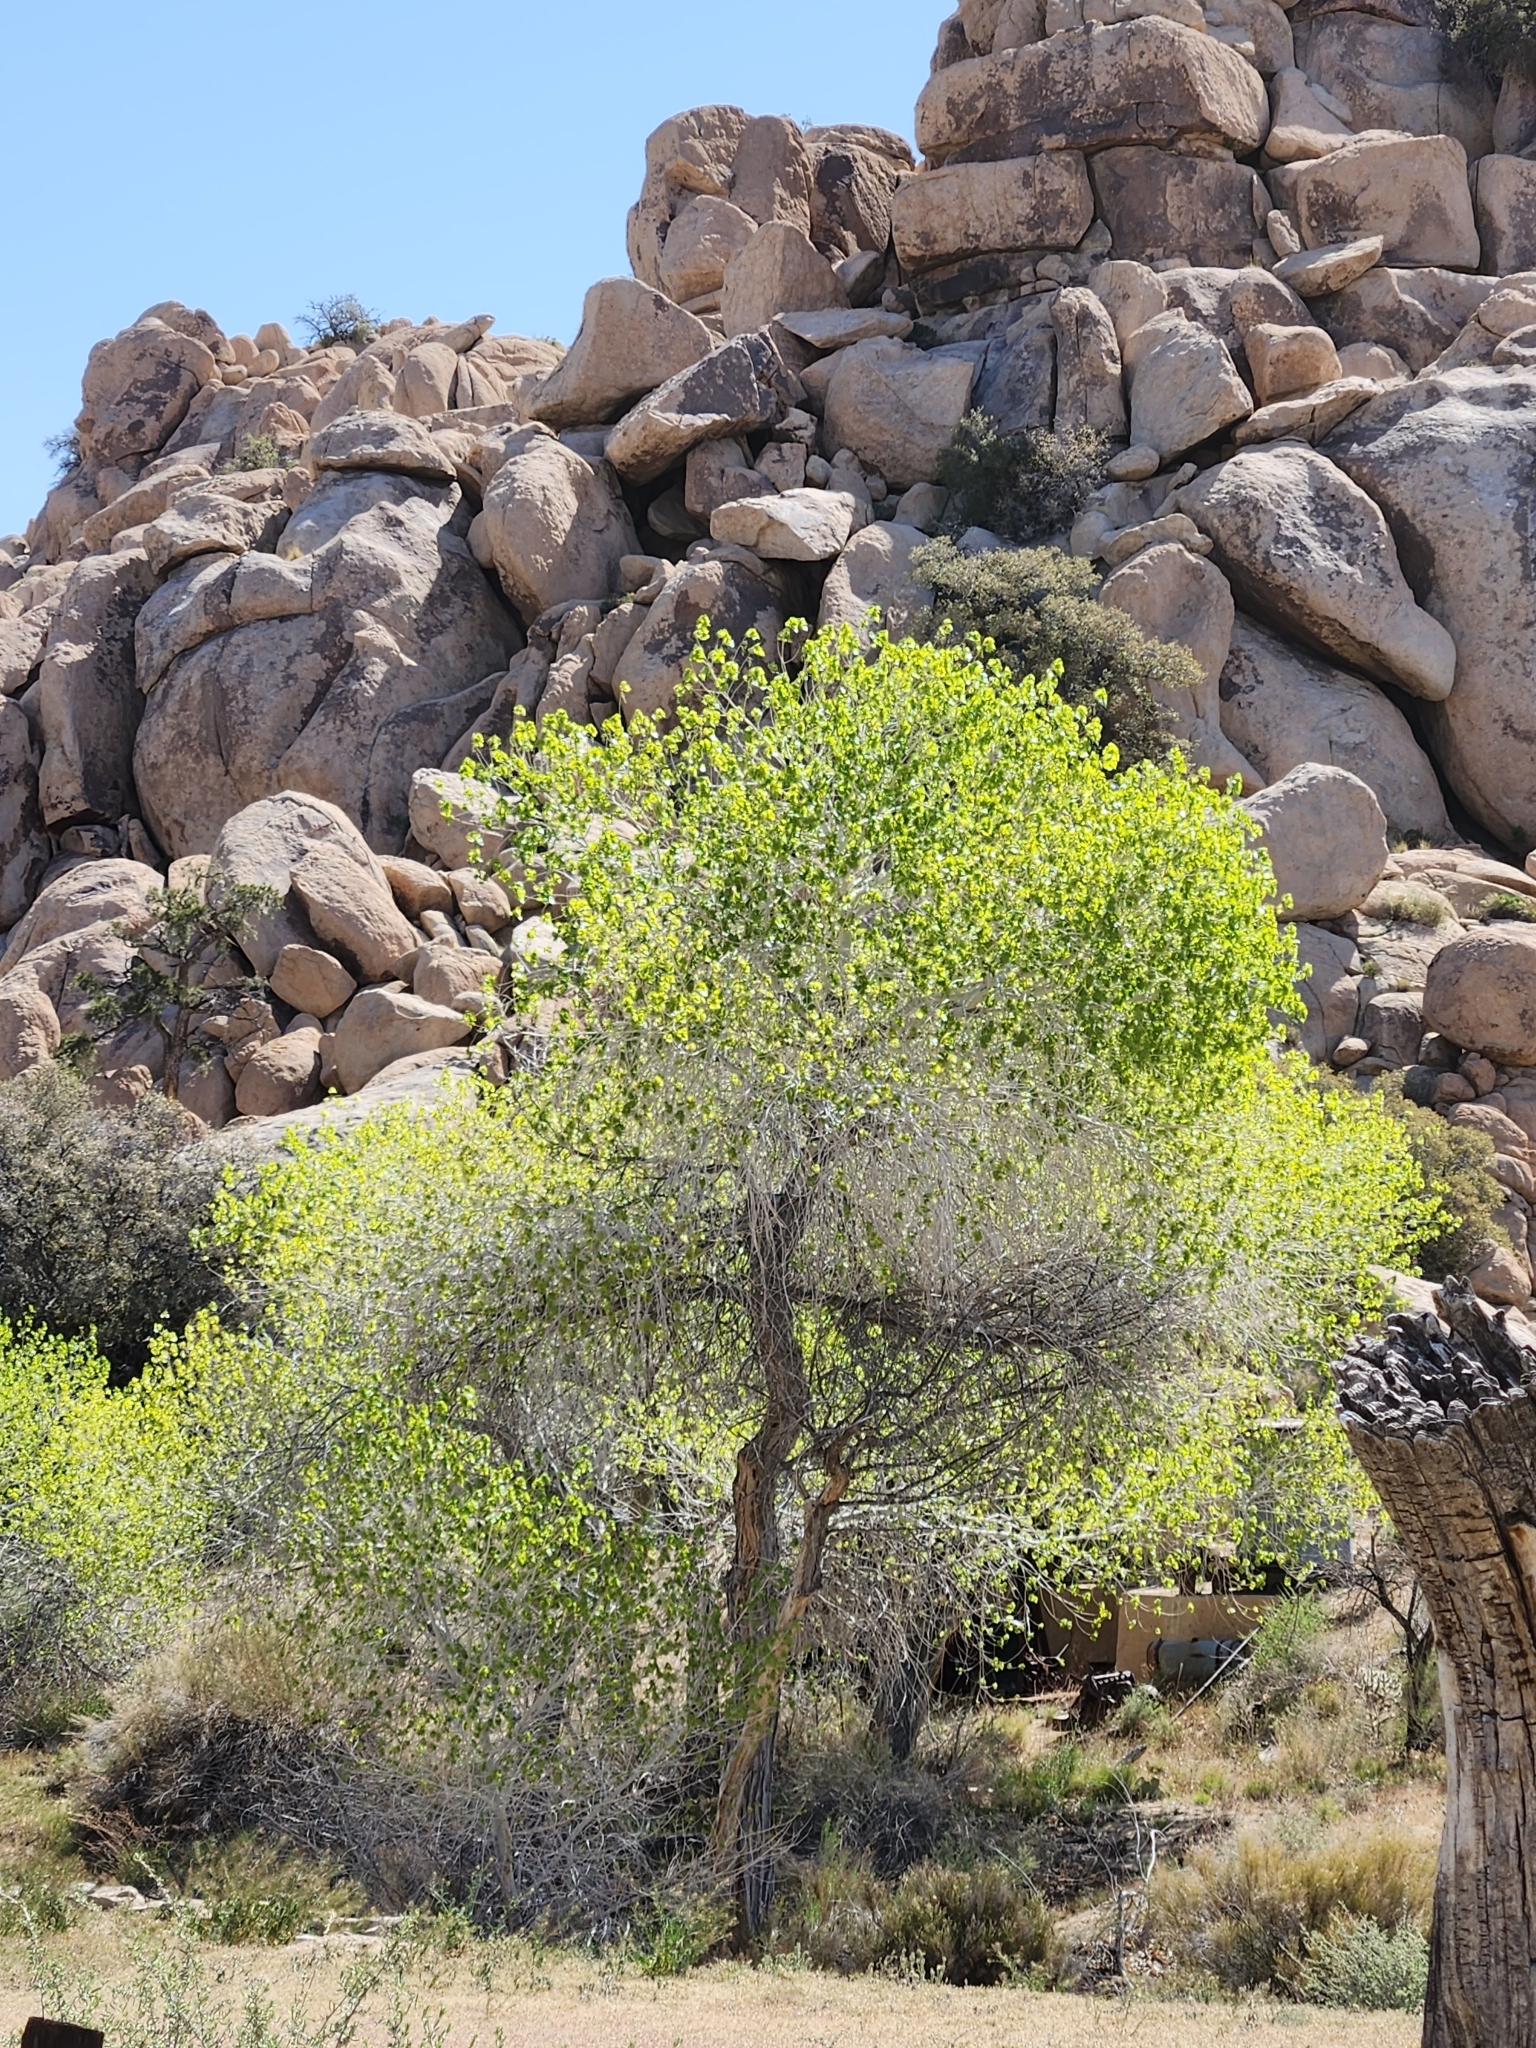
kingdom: Plantae
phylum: Tracheophyta
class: Magnoliopsida
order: Malpighiales
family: Salicaceae
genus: Populus
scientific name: Populus fremontii
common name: Fremont's cottonwood
